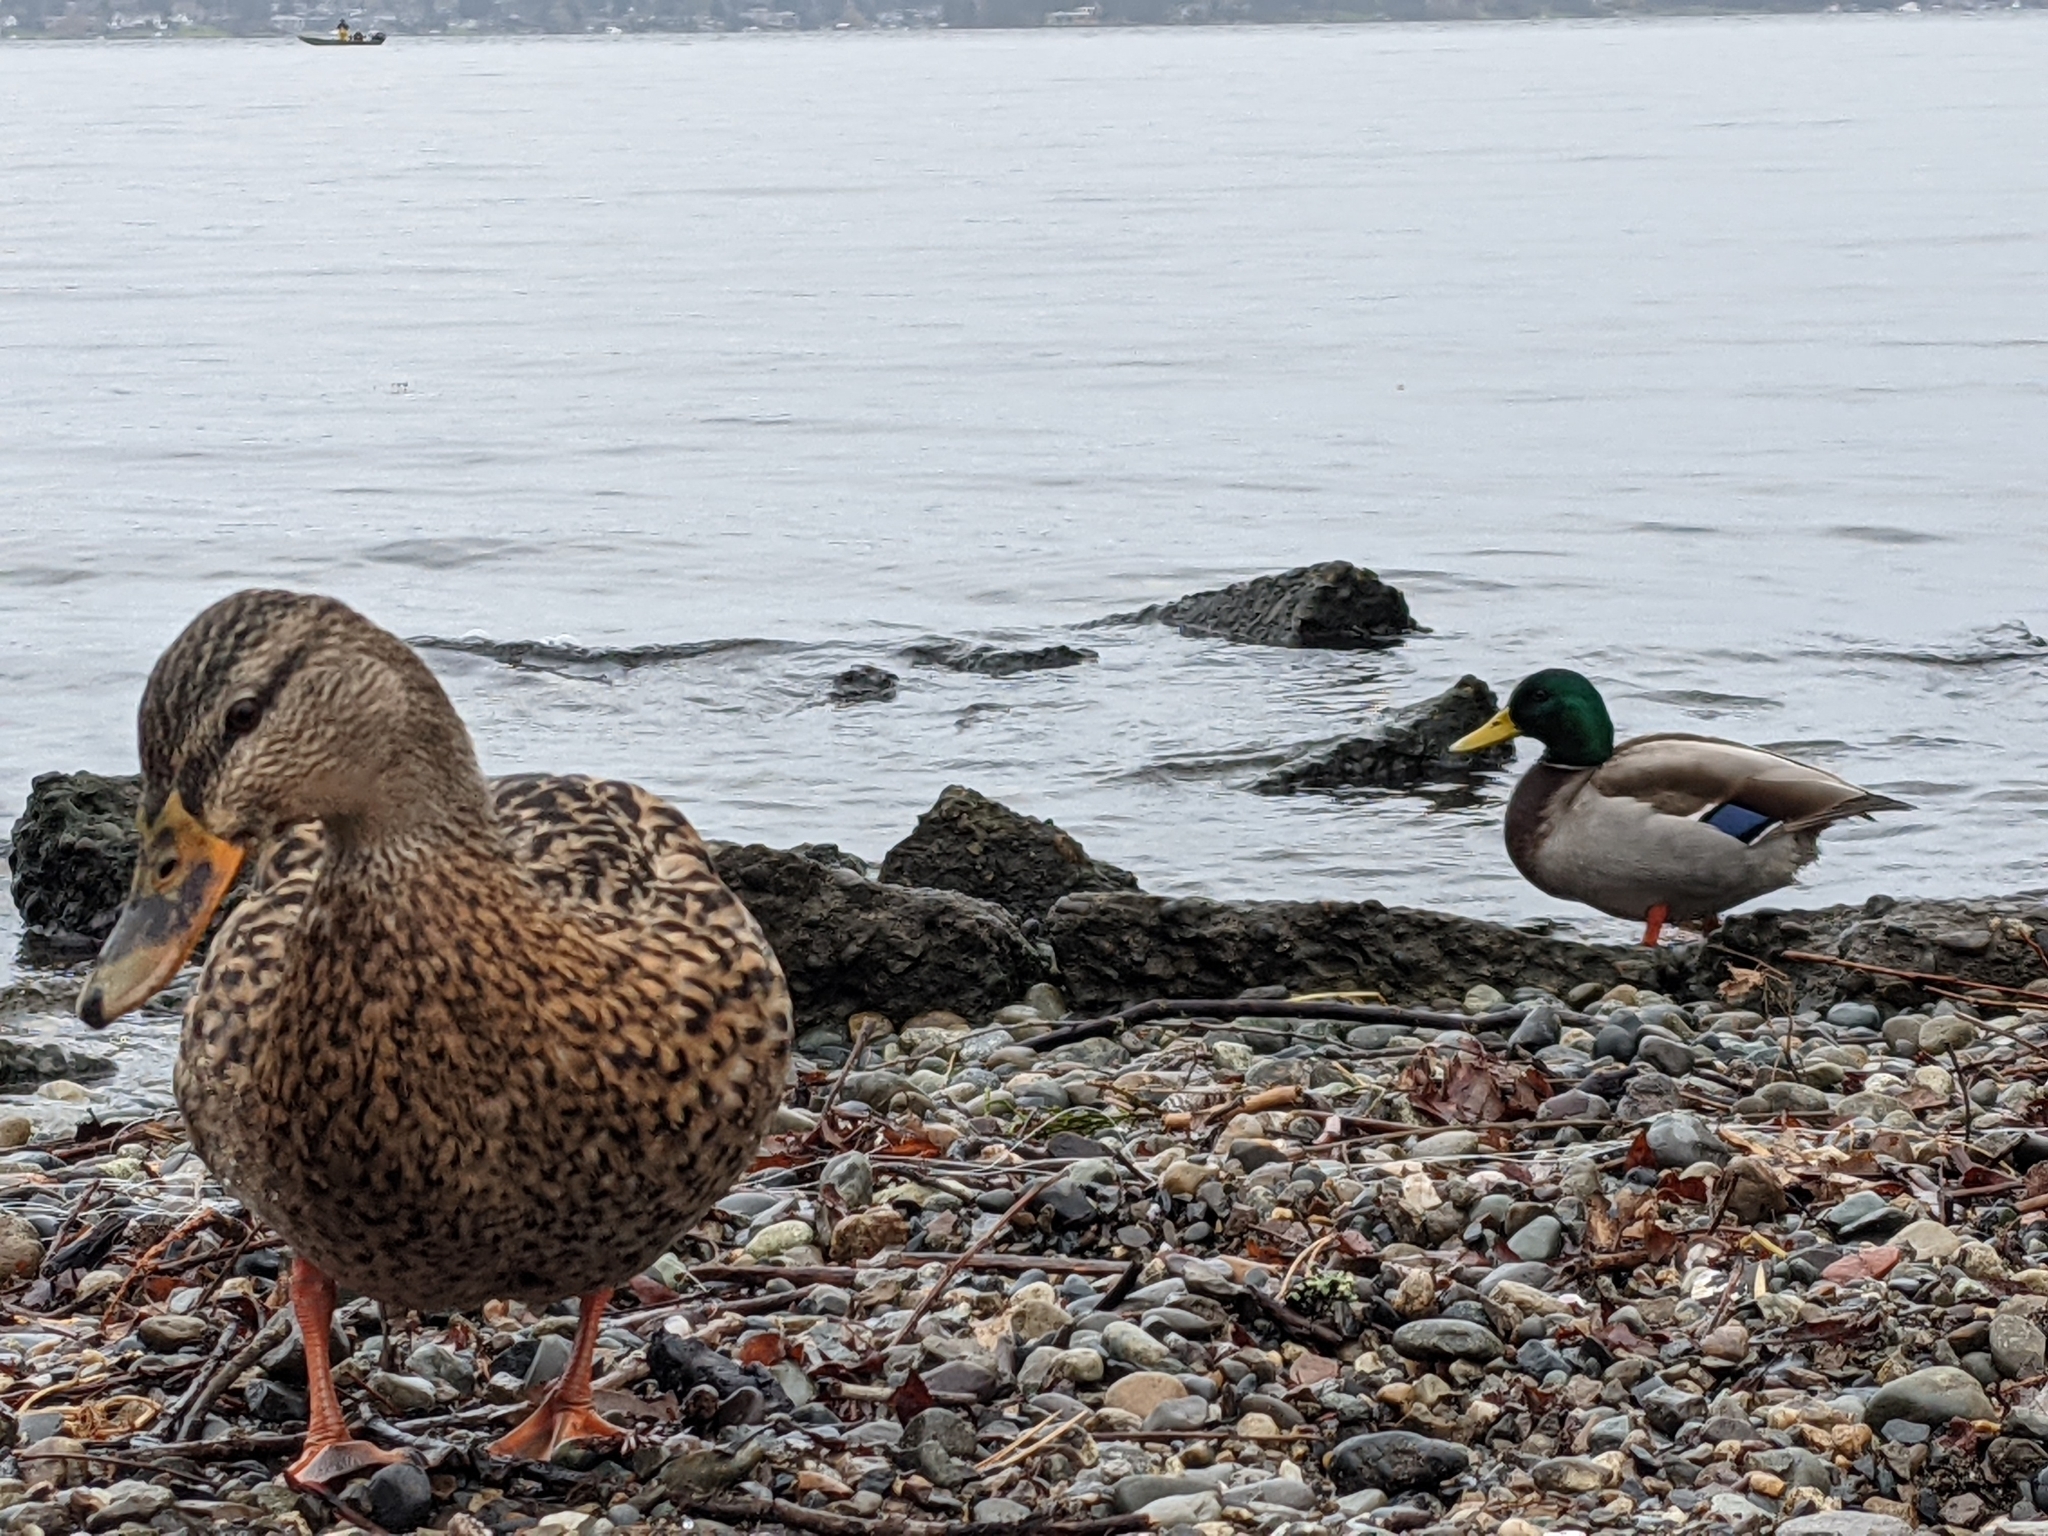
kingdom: Animalia
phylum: Chordata
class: Aves
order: Anseriformes
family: Anatidae
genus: Anas
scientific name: Anas platyrhynchos
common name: Mallard
